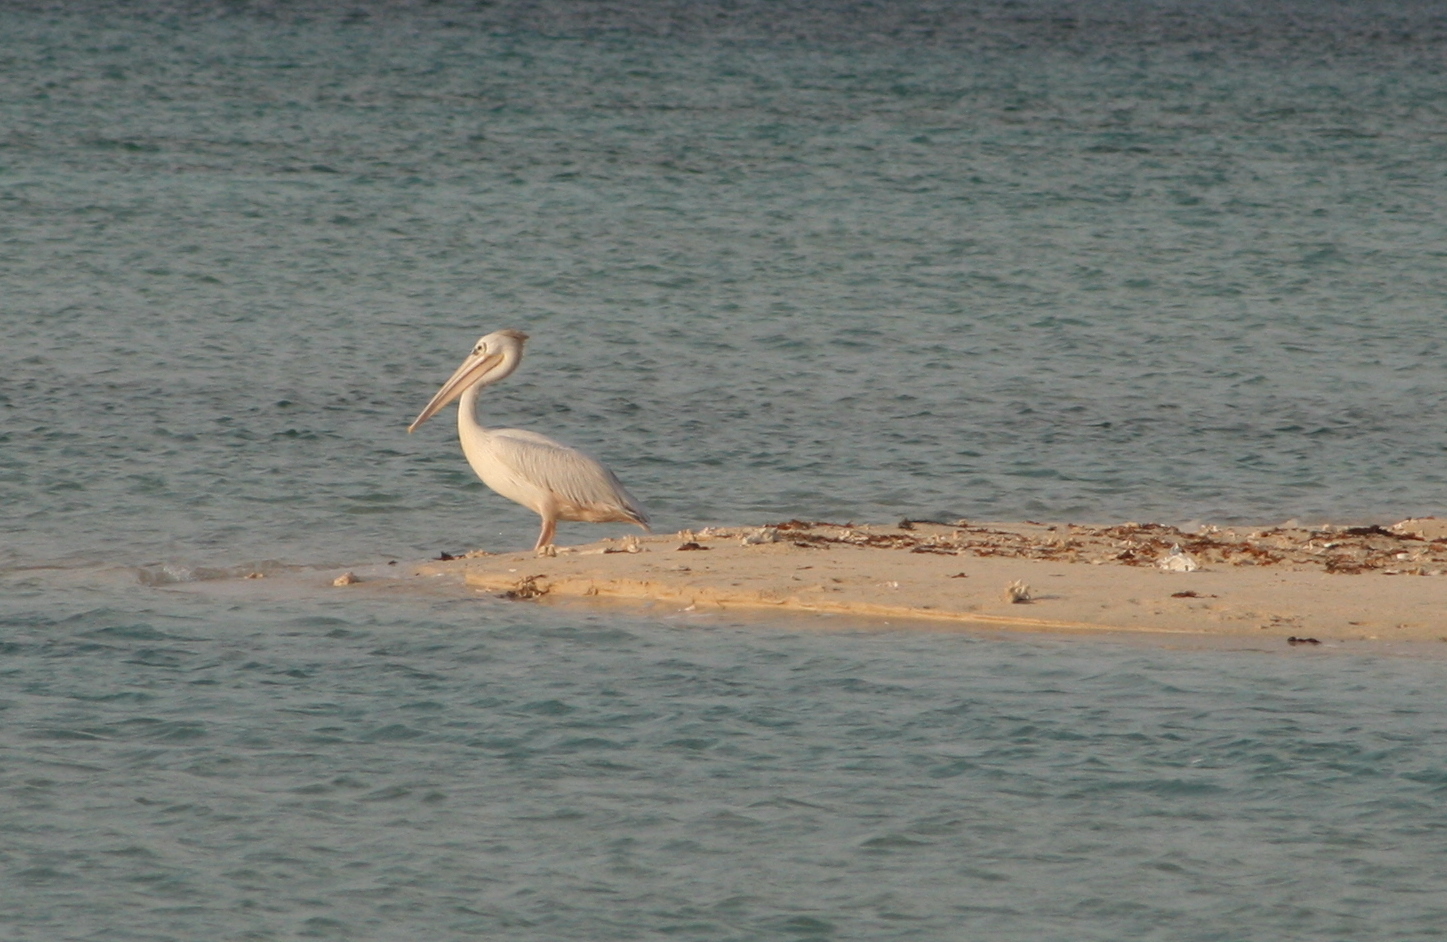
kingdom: Animalia
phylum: Chordata
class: Aves
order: Pelecaniformes
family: Pelecanidae
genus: Pelecanus
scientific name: Pelecanus rufescens
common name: Pink-backed pelican
